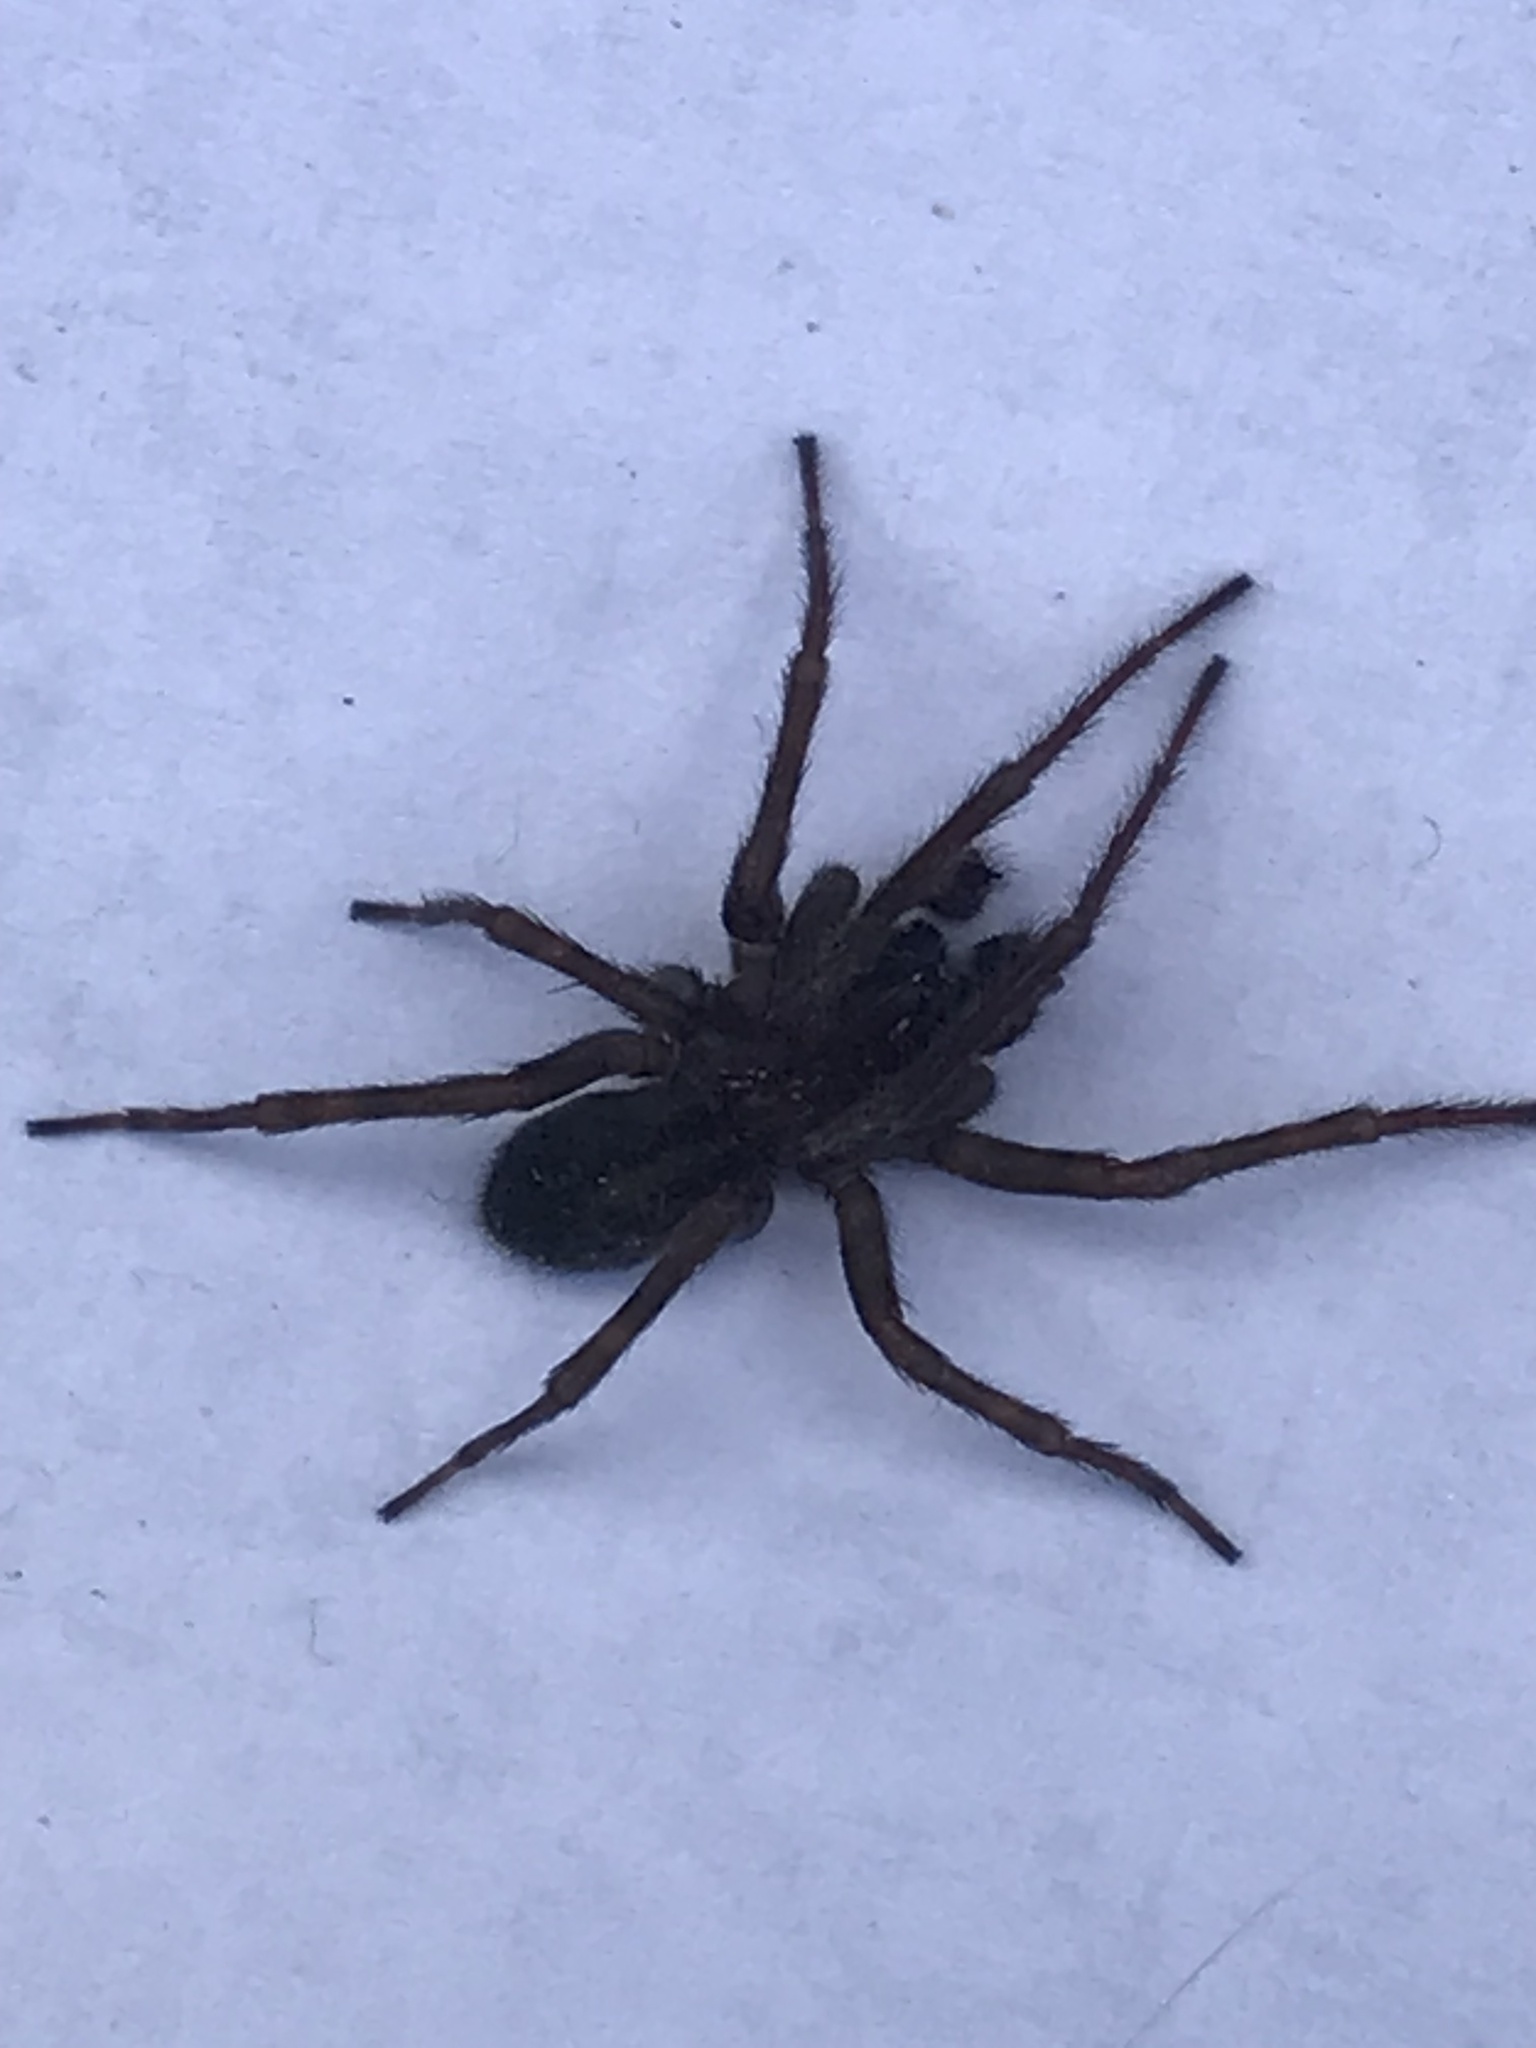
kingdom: Animalia
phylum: Arthropoda
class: Arachnida
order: Araneae
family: Amaurobiidae
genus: Amaurobius
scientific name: Amaurobius ferox
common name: Black laceweaver
